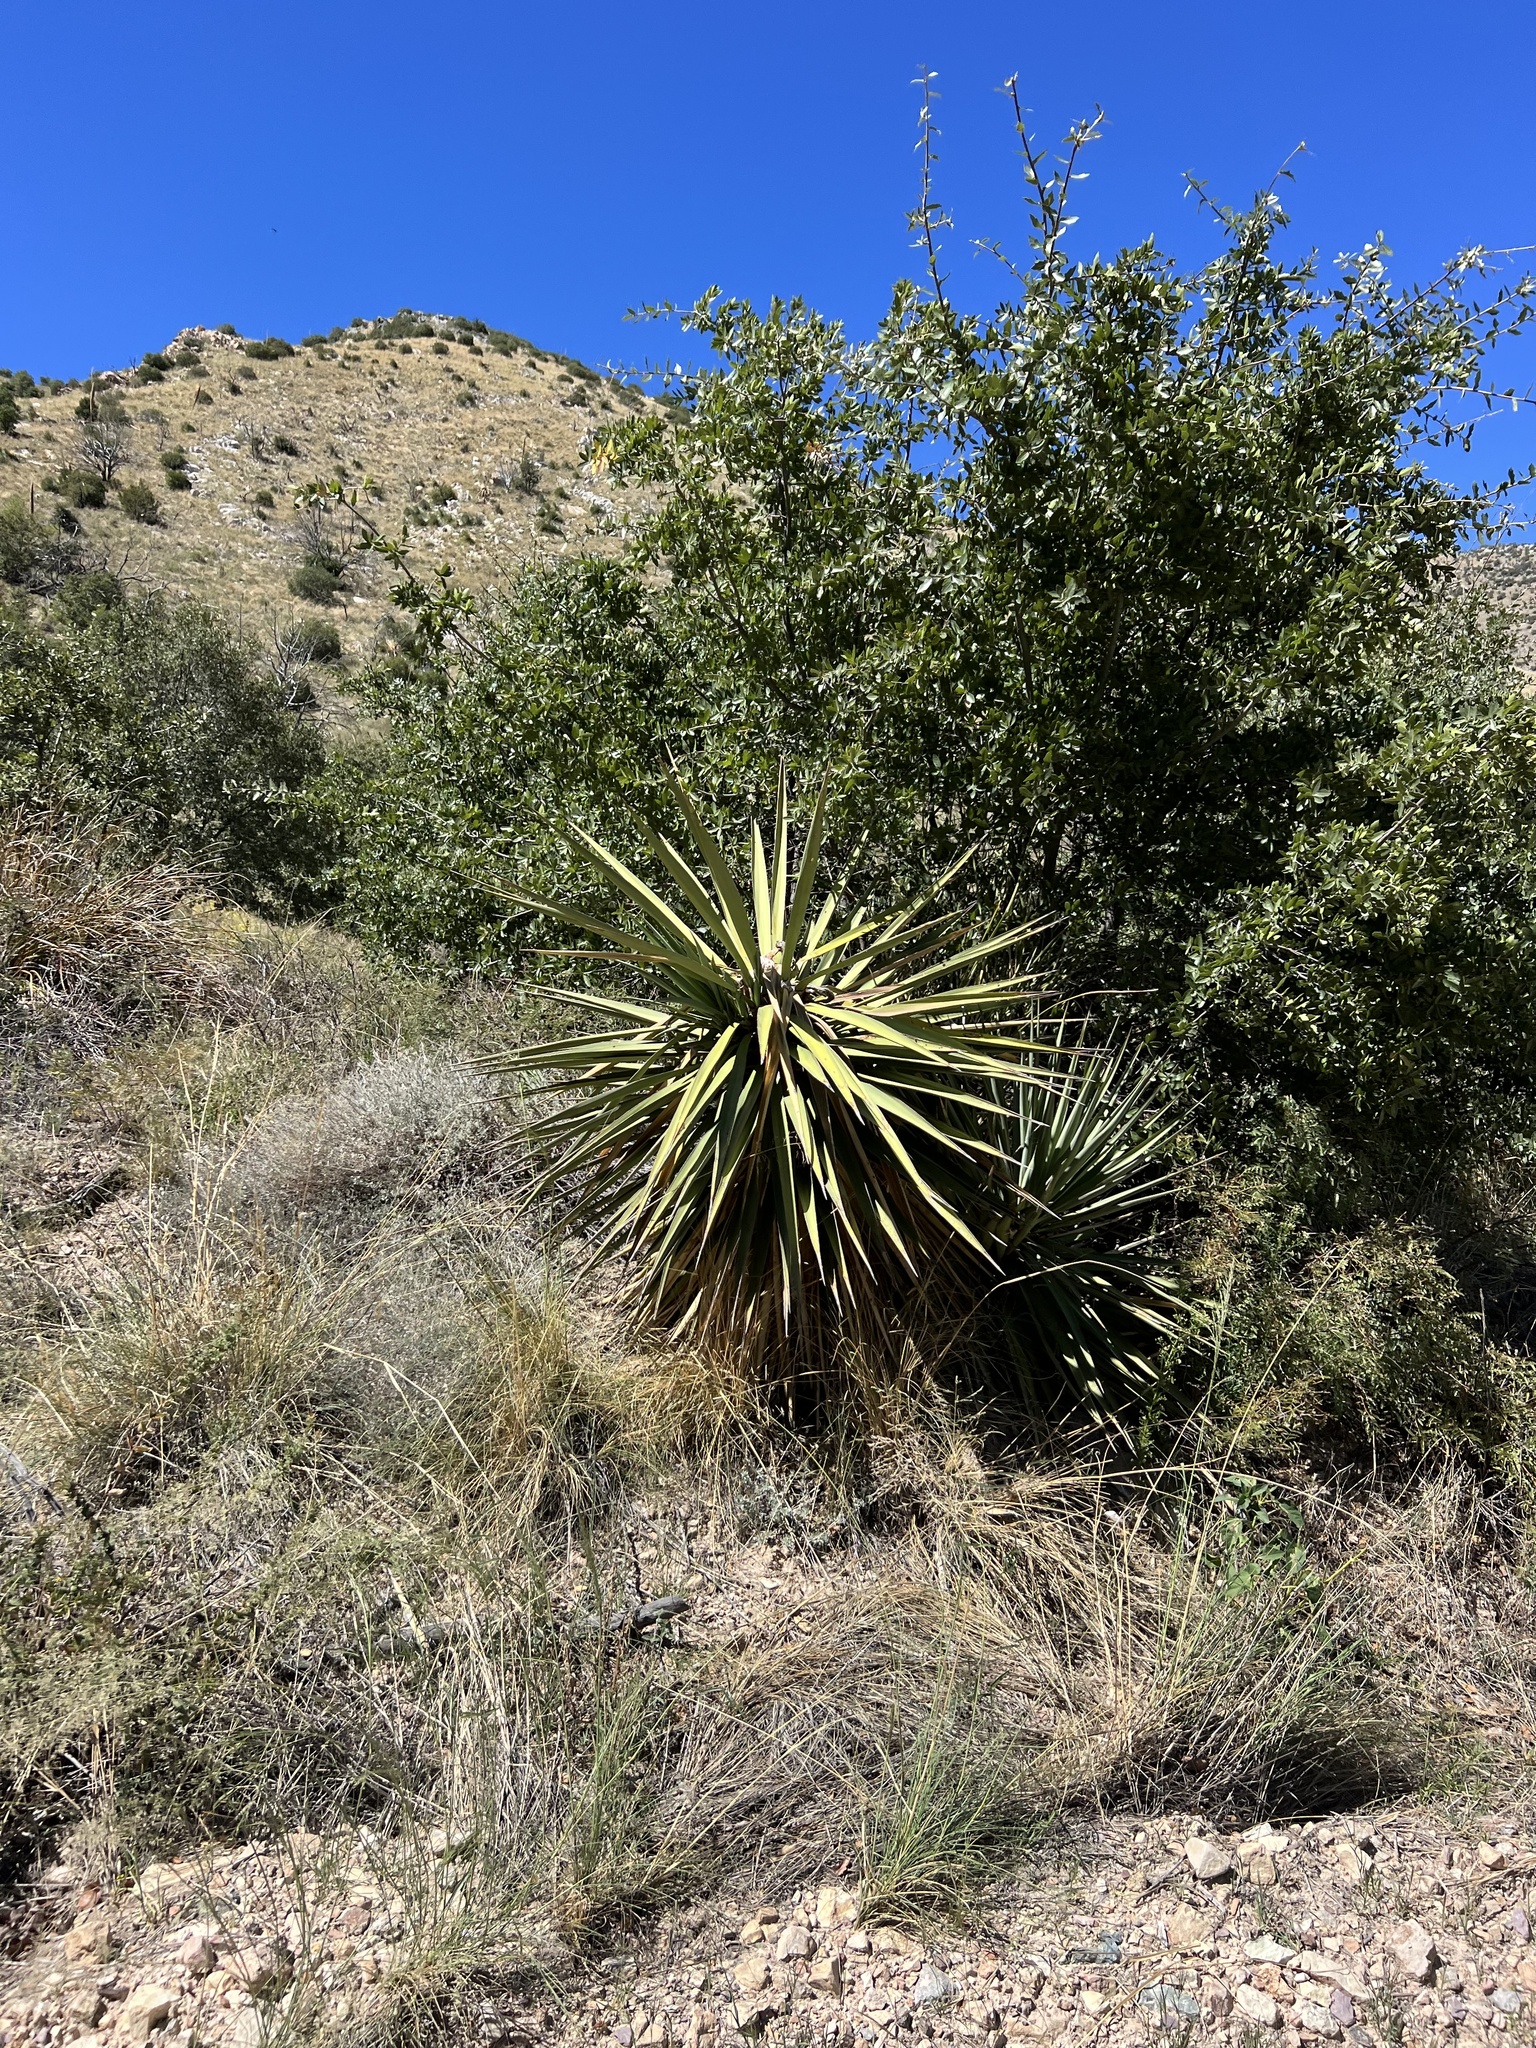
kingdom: Plantae
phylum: Tracheophyta
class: Liliopsida
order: Asparagales
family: Asparagaceae
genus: Yucca
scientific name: Yucca schottii
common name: Hoary yucca
